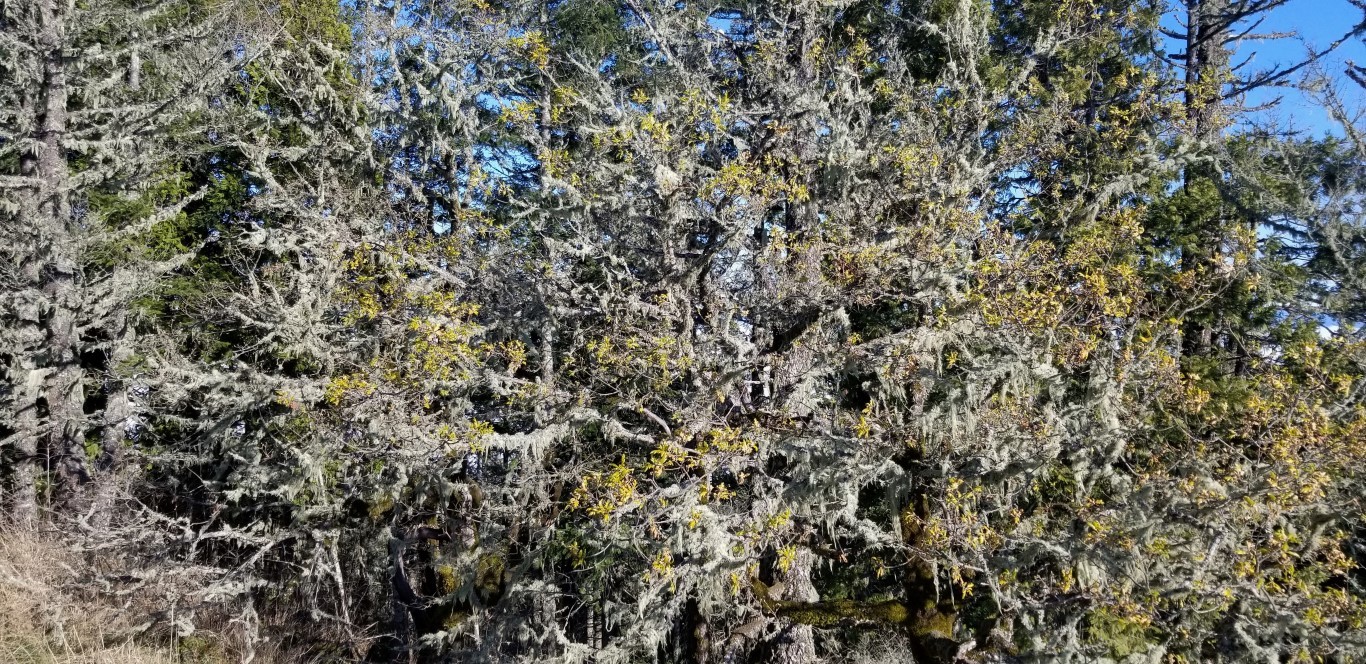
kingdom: Plantae
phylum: Tracheophyta
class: Magnoliopsida
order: Fagales
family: Fagaceae
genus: Quercus
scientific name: Quercus garryana
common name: Garry oak
